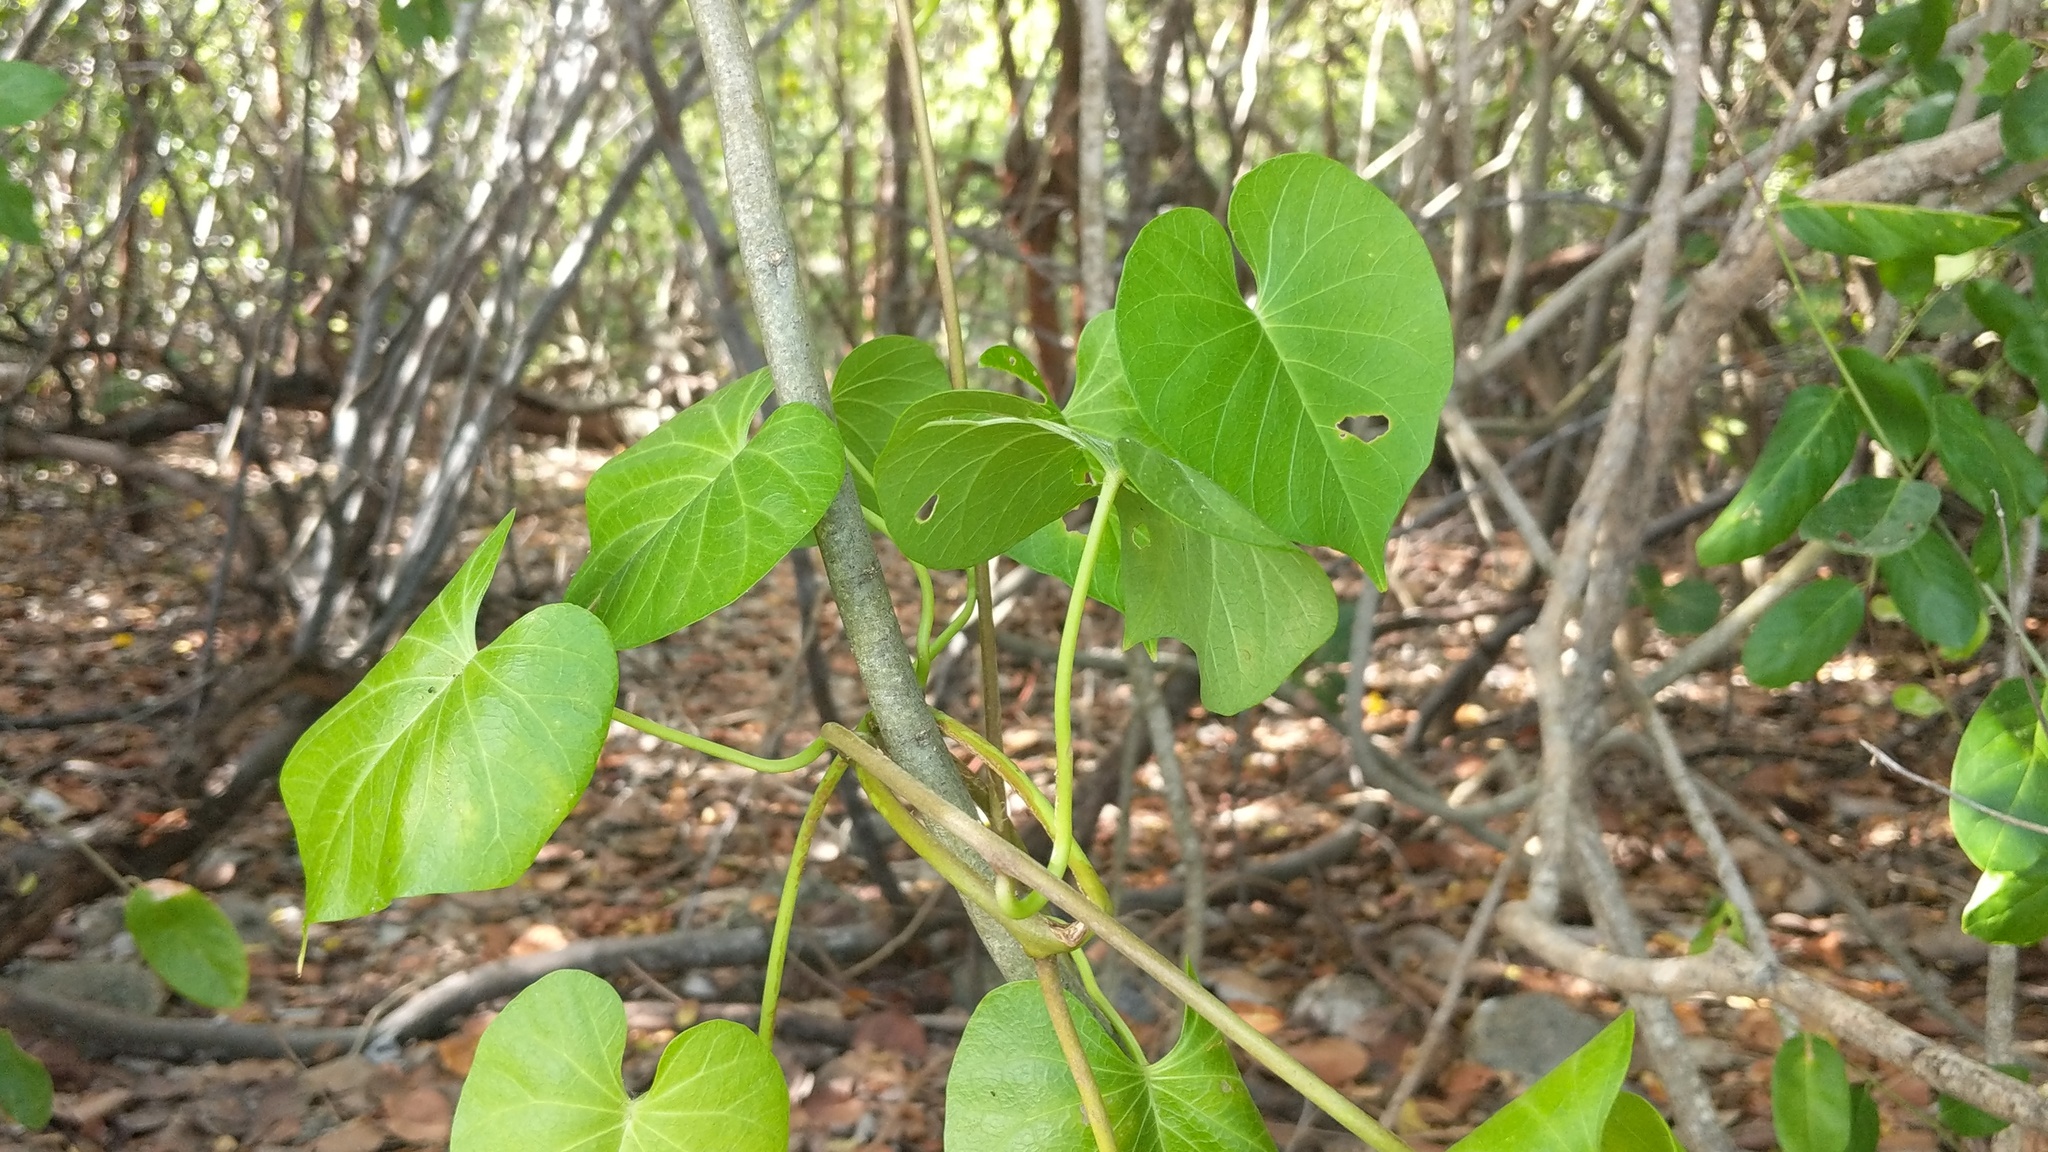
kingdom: Plantae
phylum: Tracheophyta
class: Magnoliopsida
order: Solanales
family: Convolvulaceae
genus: Ipomoea
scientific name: Ipomoea violacea
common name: Beach moonflower
